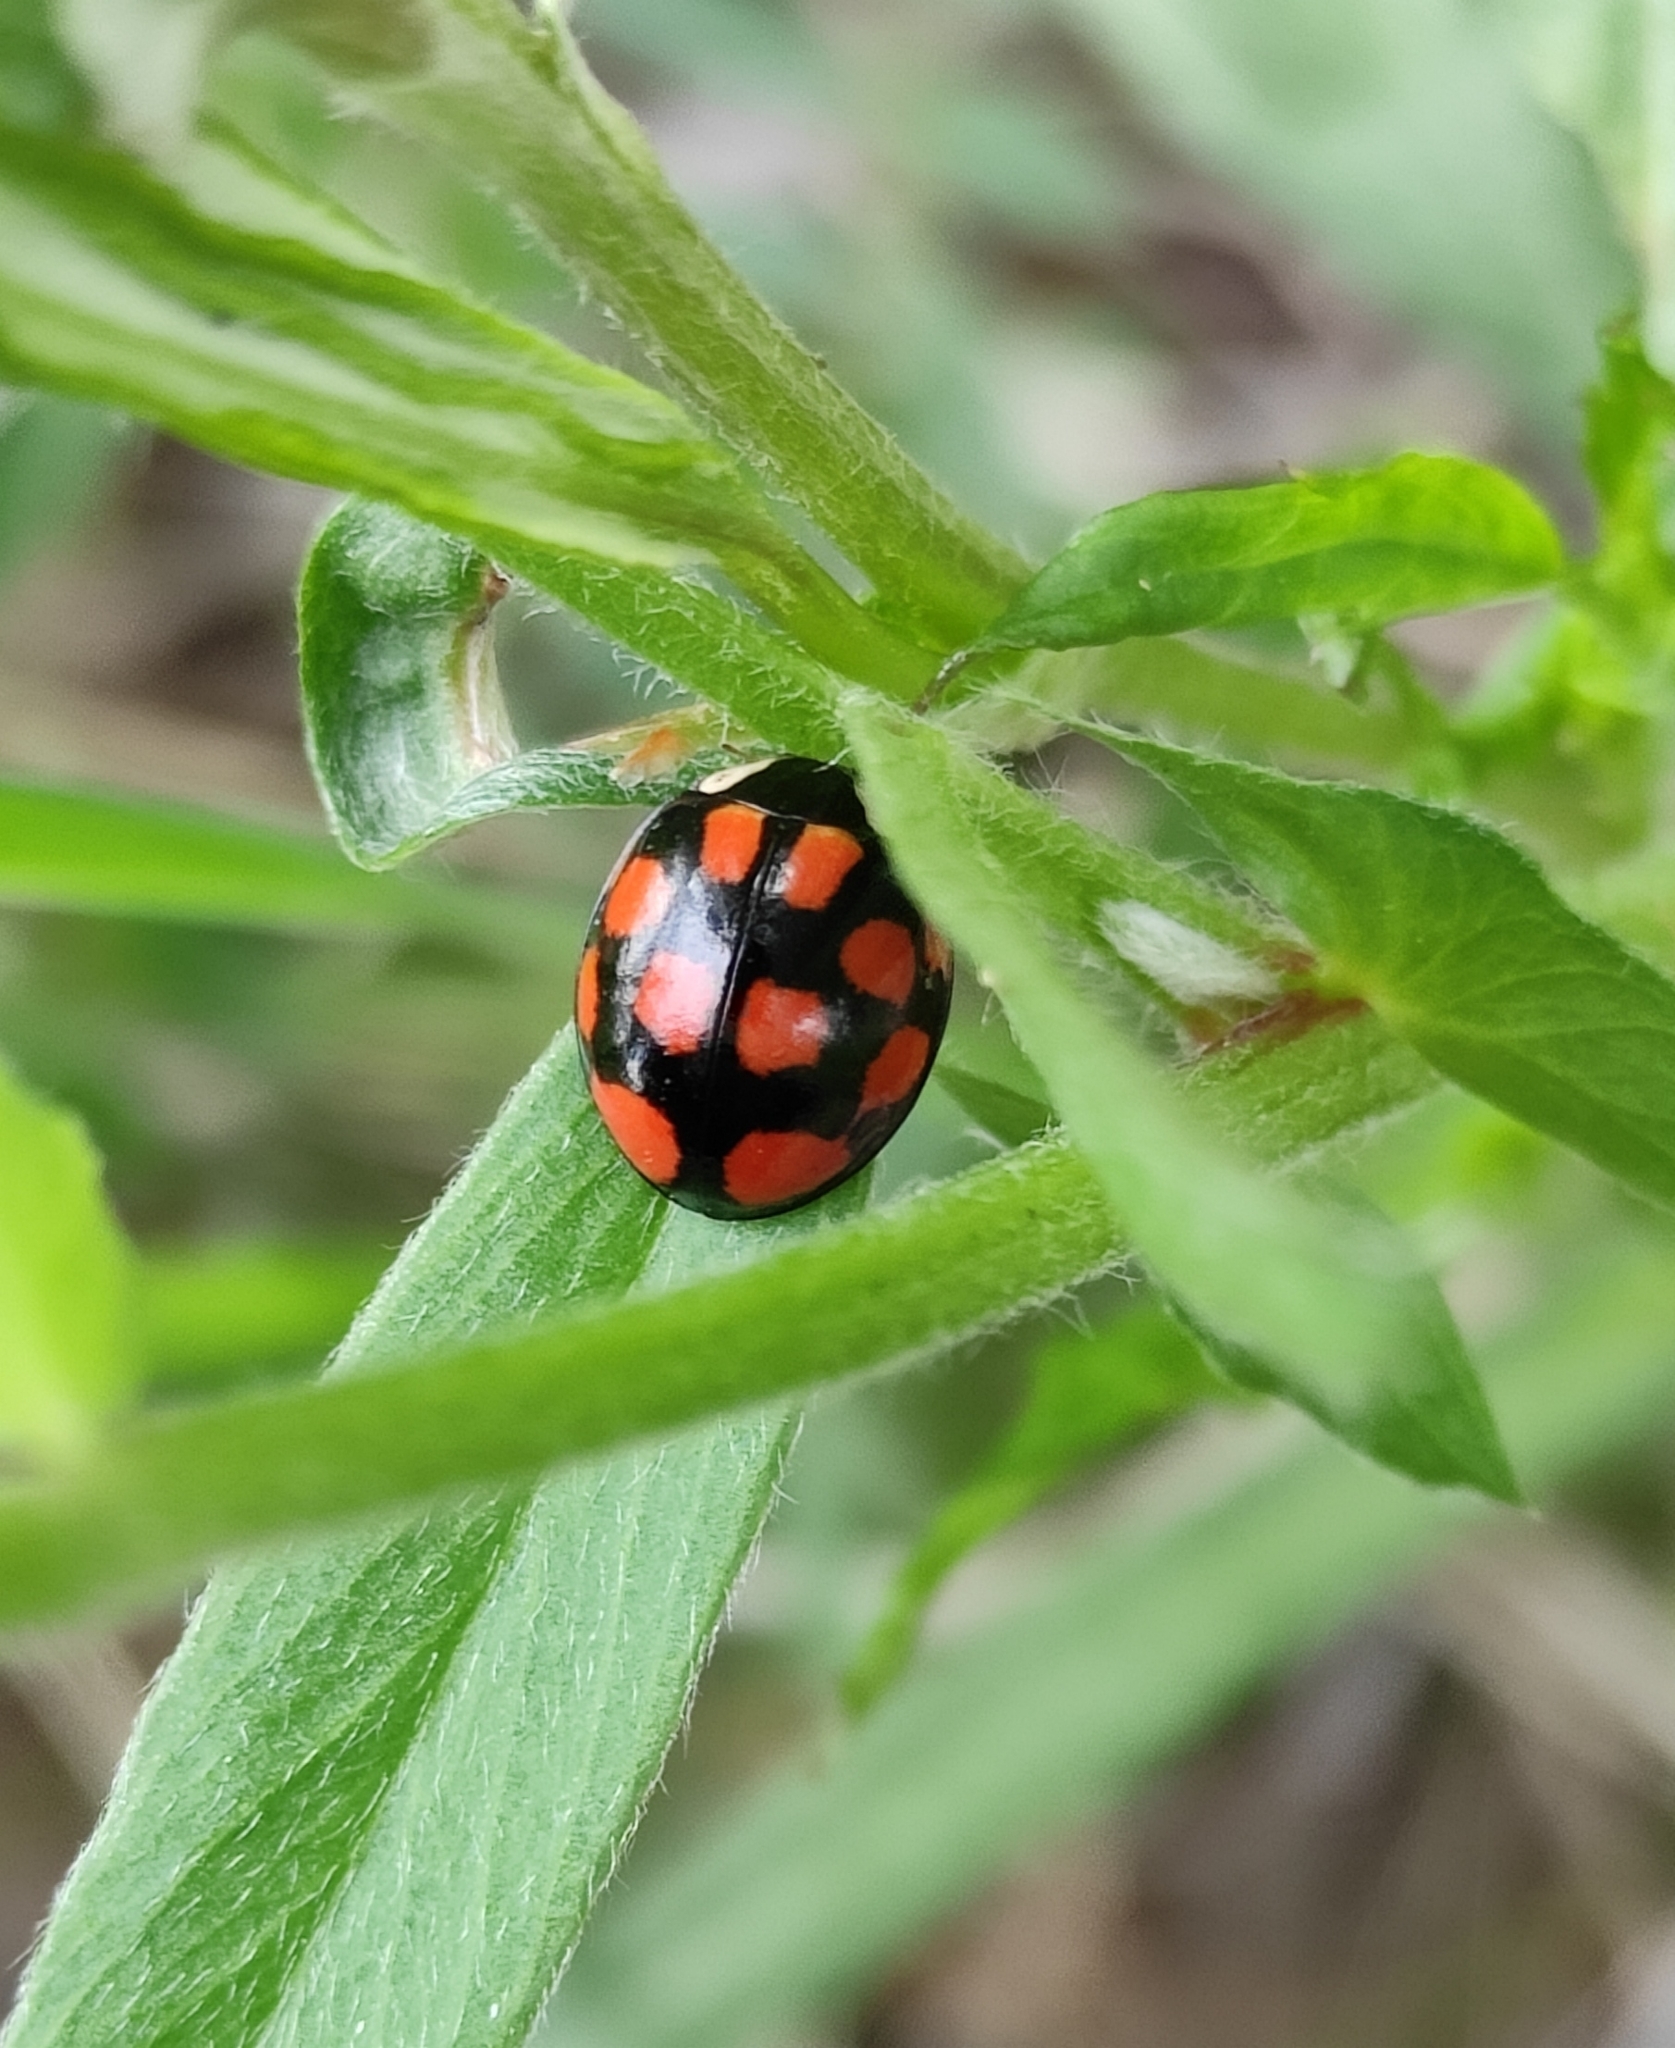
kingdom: Animalia
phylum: Arthropoda
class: Insecta
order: Coleoptera
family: Coccinellidae
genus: Harmonia
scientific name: Harmonia axyridis
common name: Harlequin ladybird
